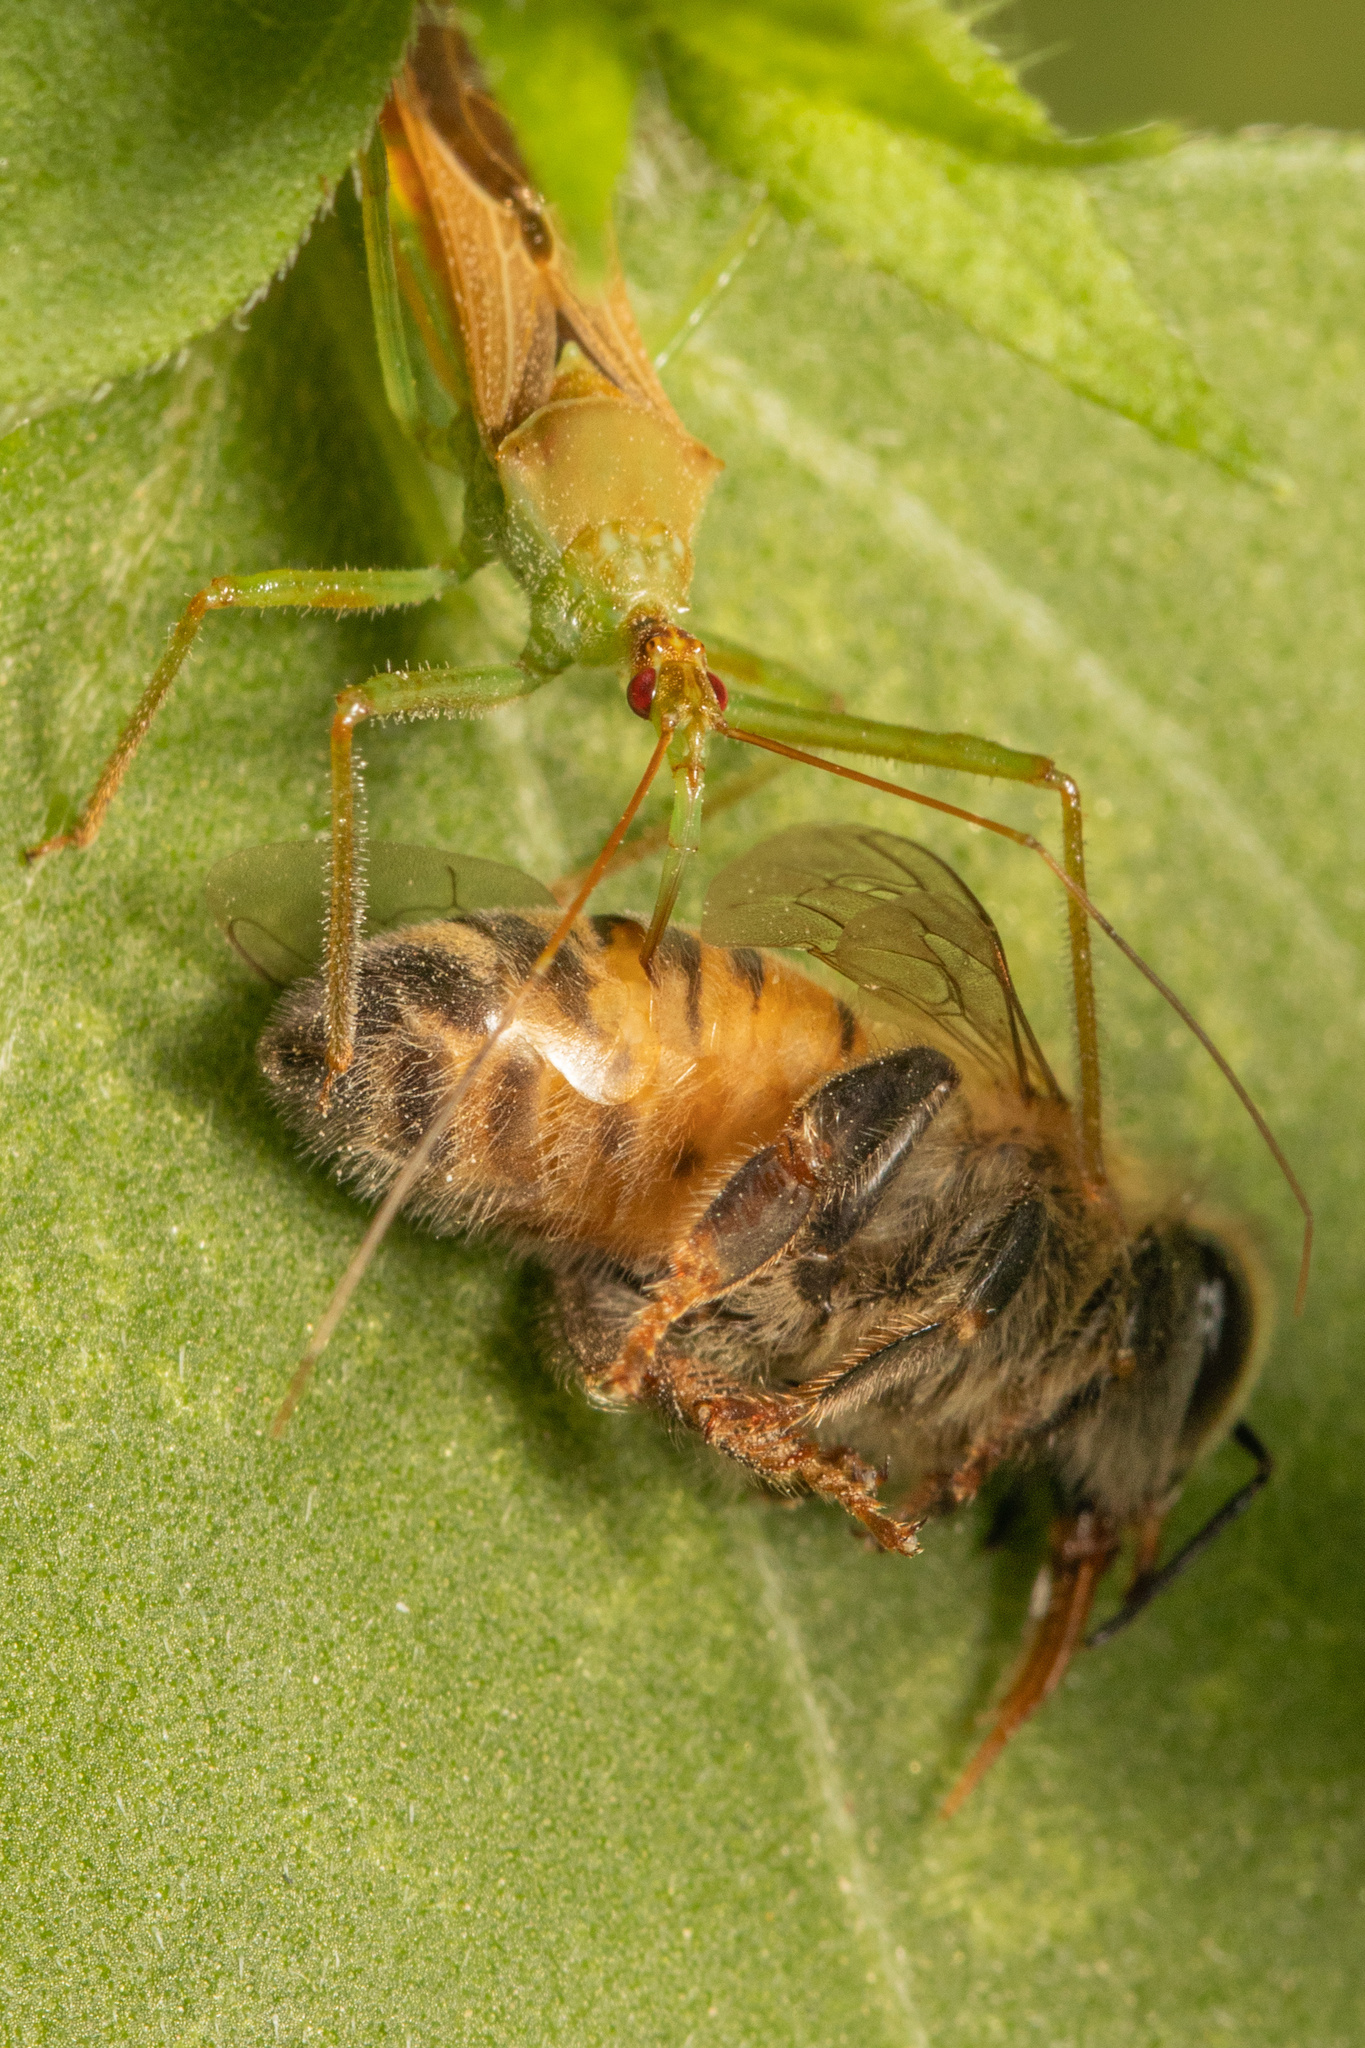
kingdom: Animalia
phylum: Arthropoda
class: Insecta
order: Hymenoptera
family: Apidae
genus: Apis
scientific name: Apis mellifera
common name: Honey bee
